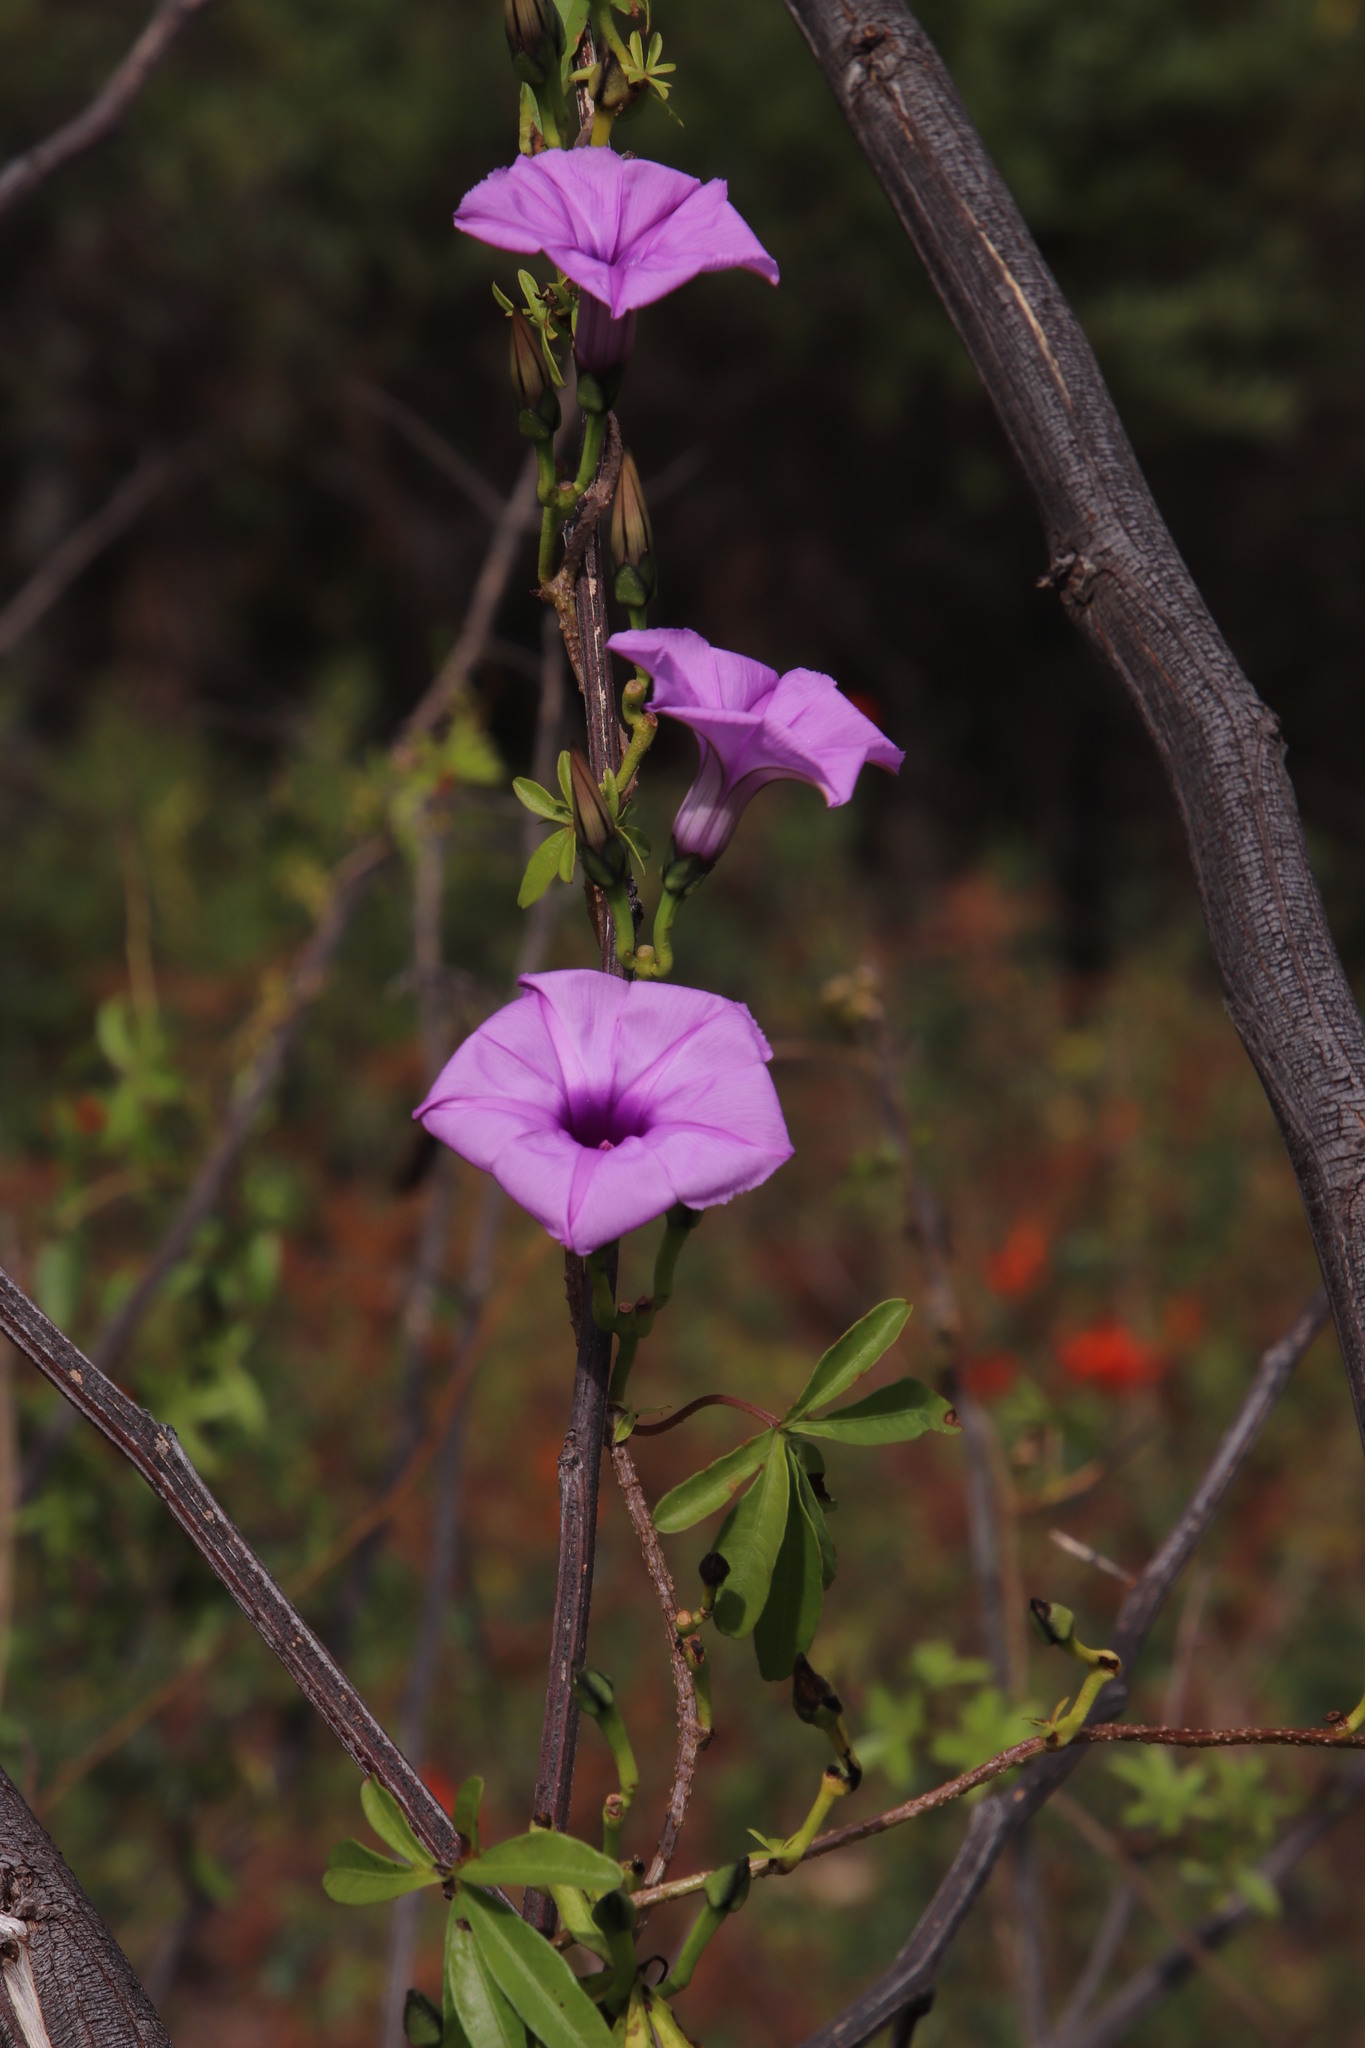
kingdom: Plantae
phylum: Tracheophyta
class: Magnoliopsida
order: Solanales
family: Convolvulaceae
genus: Ipomoea
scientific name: Ipomoea cairica
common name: Mile a minute vine
